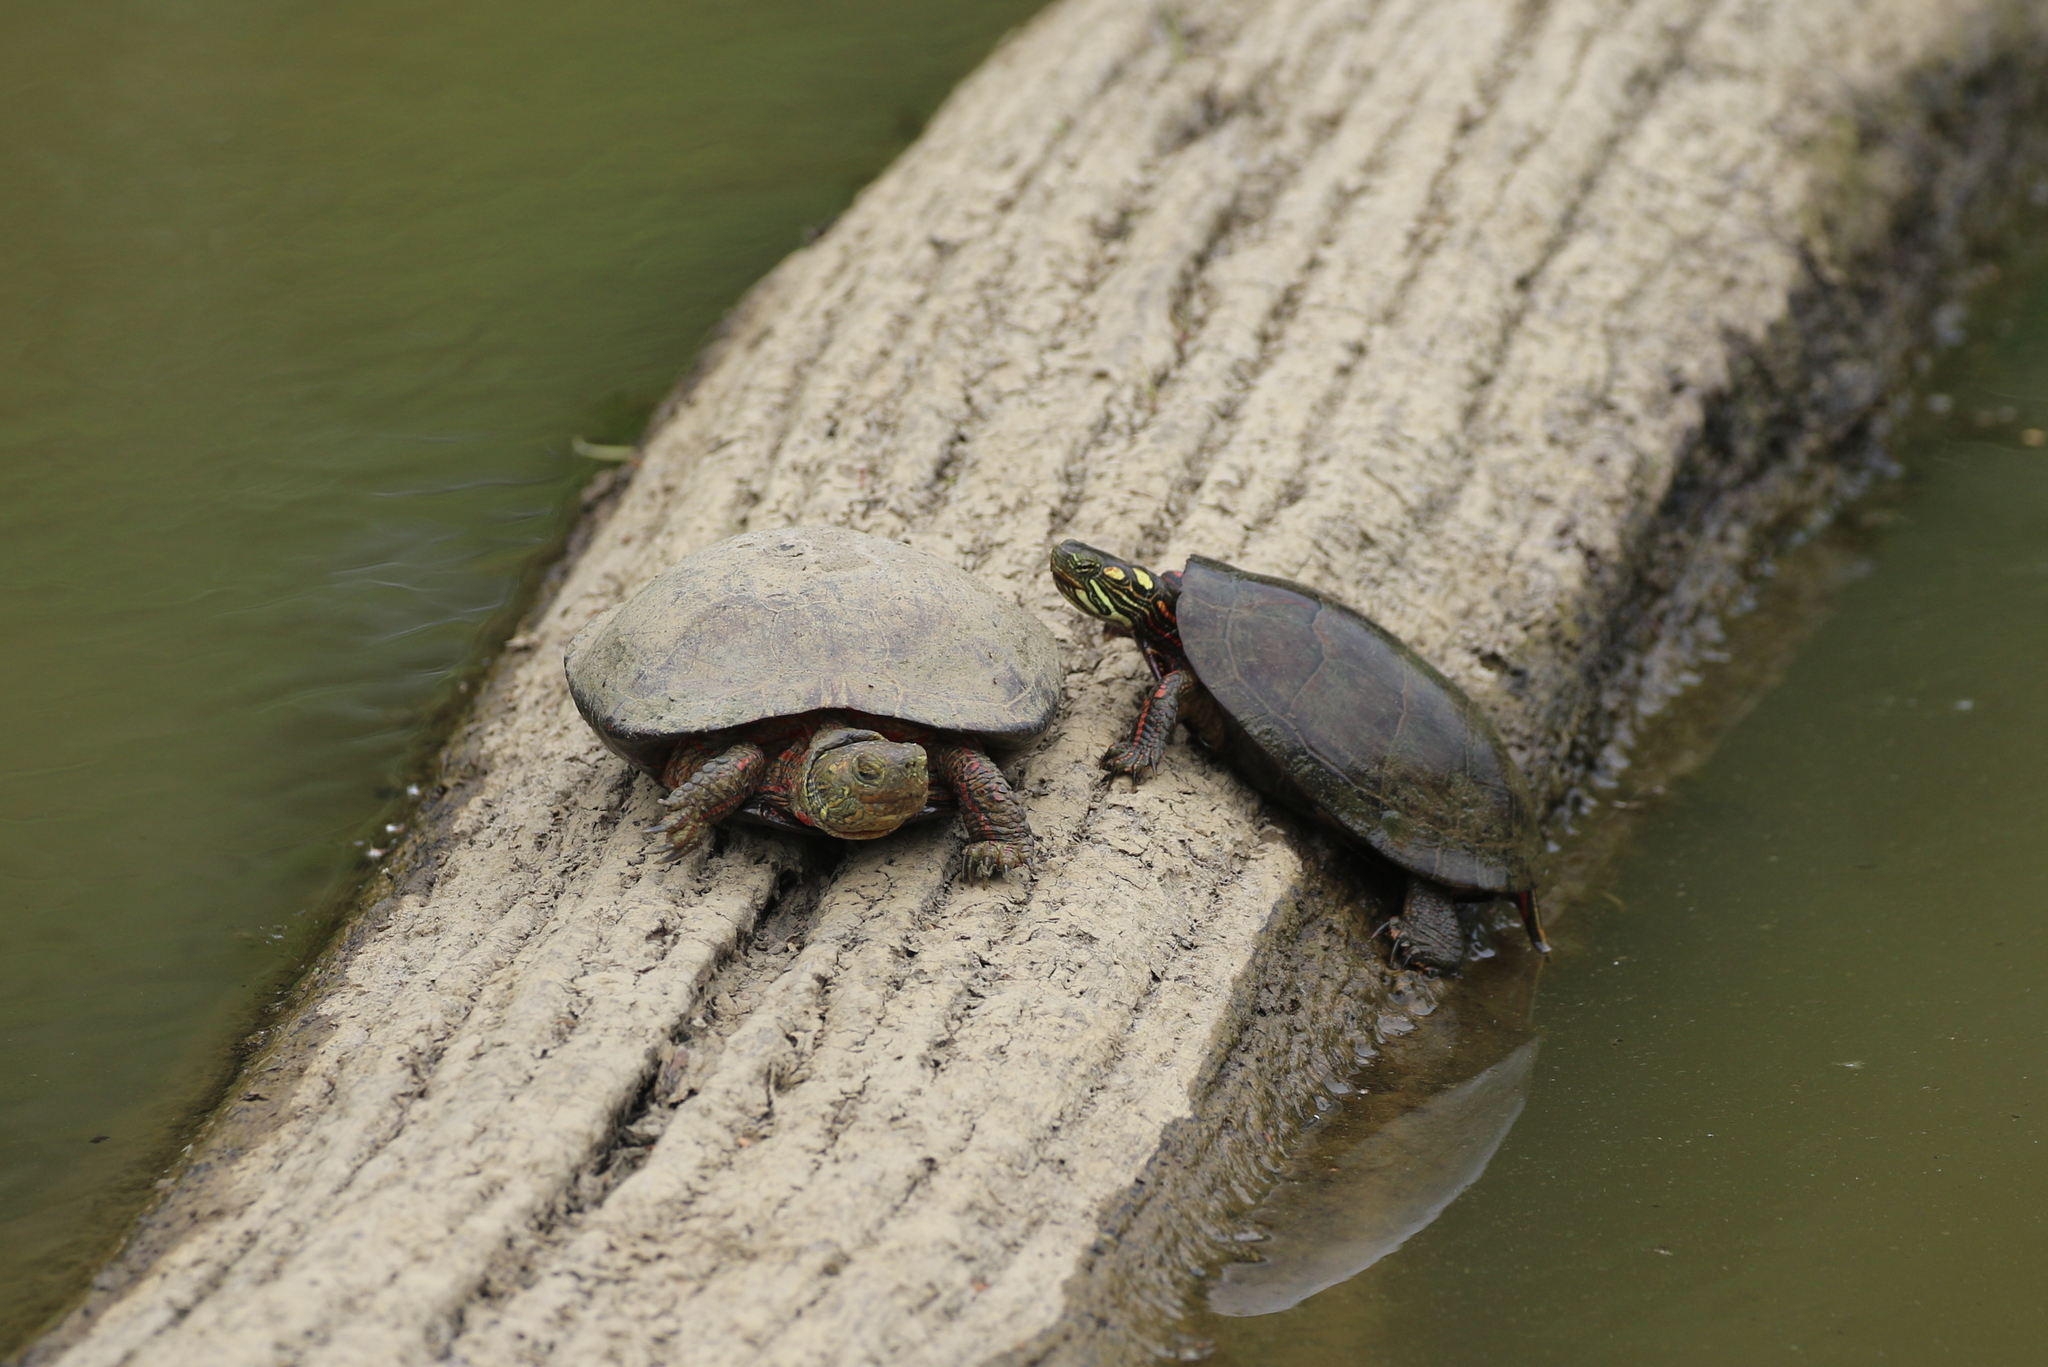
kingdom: Animalia
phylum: Chordata
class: Testudines
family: Emydidae
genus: Chrysemys
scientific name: Chrysemys picta
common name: Painted turtle
